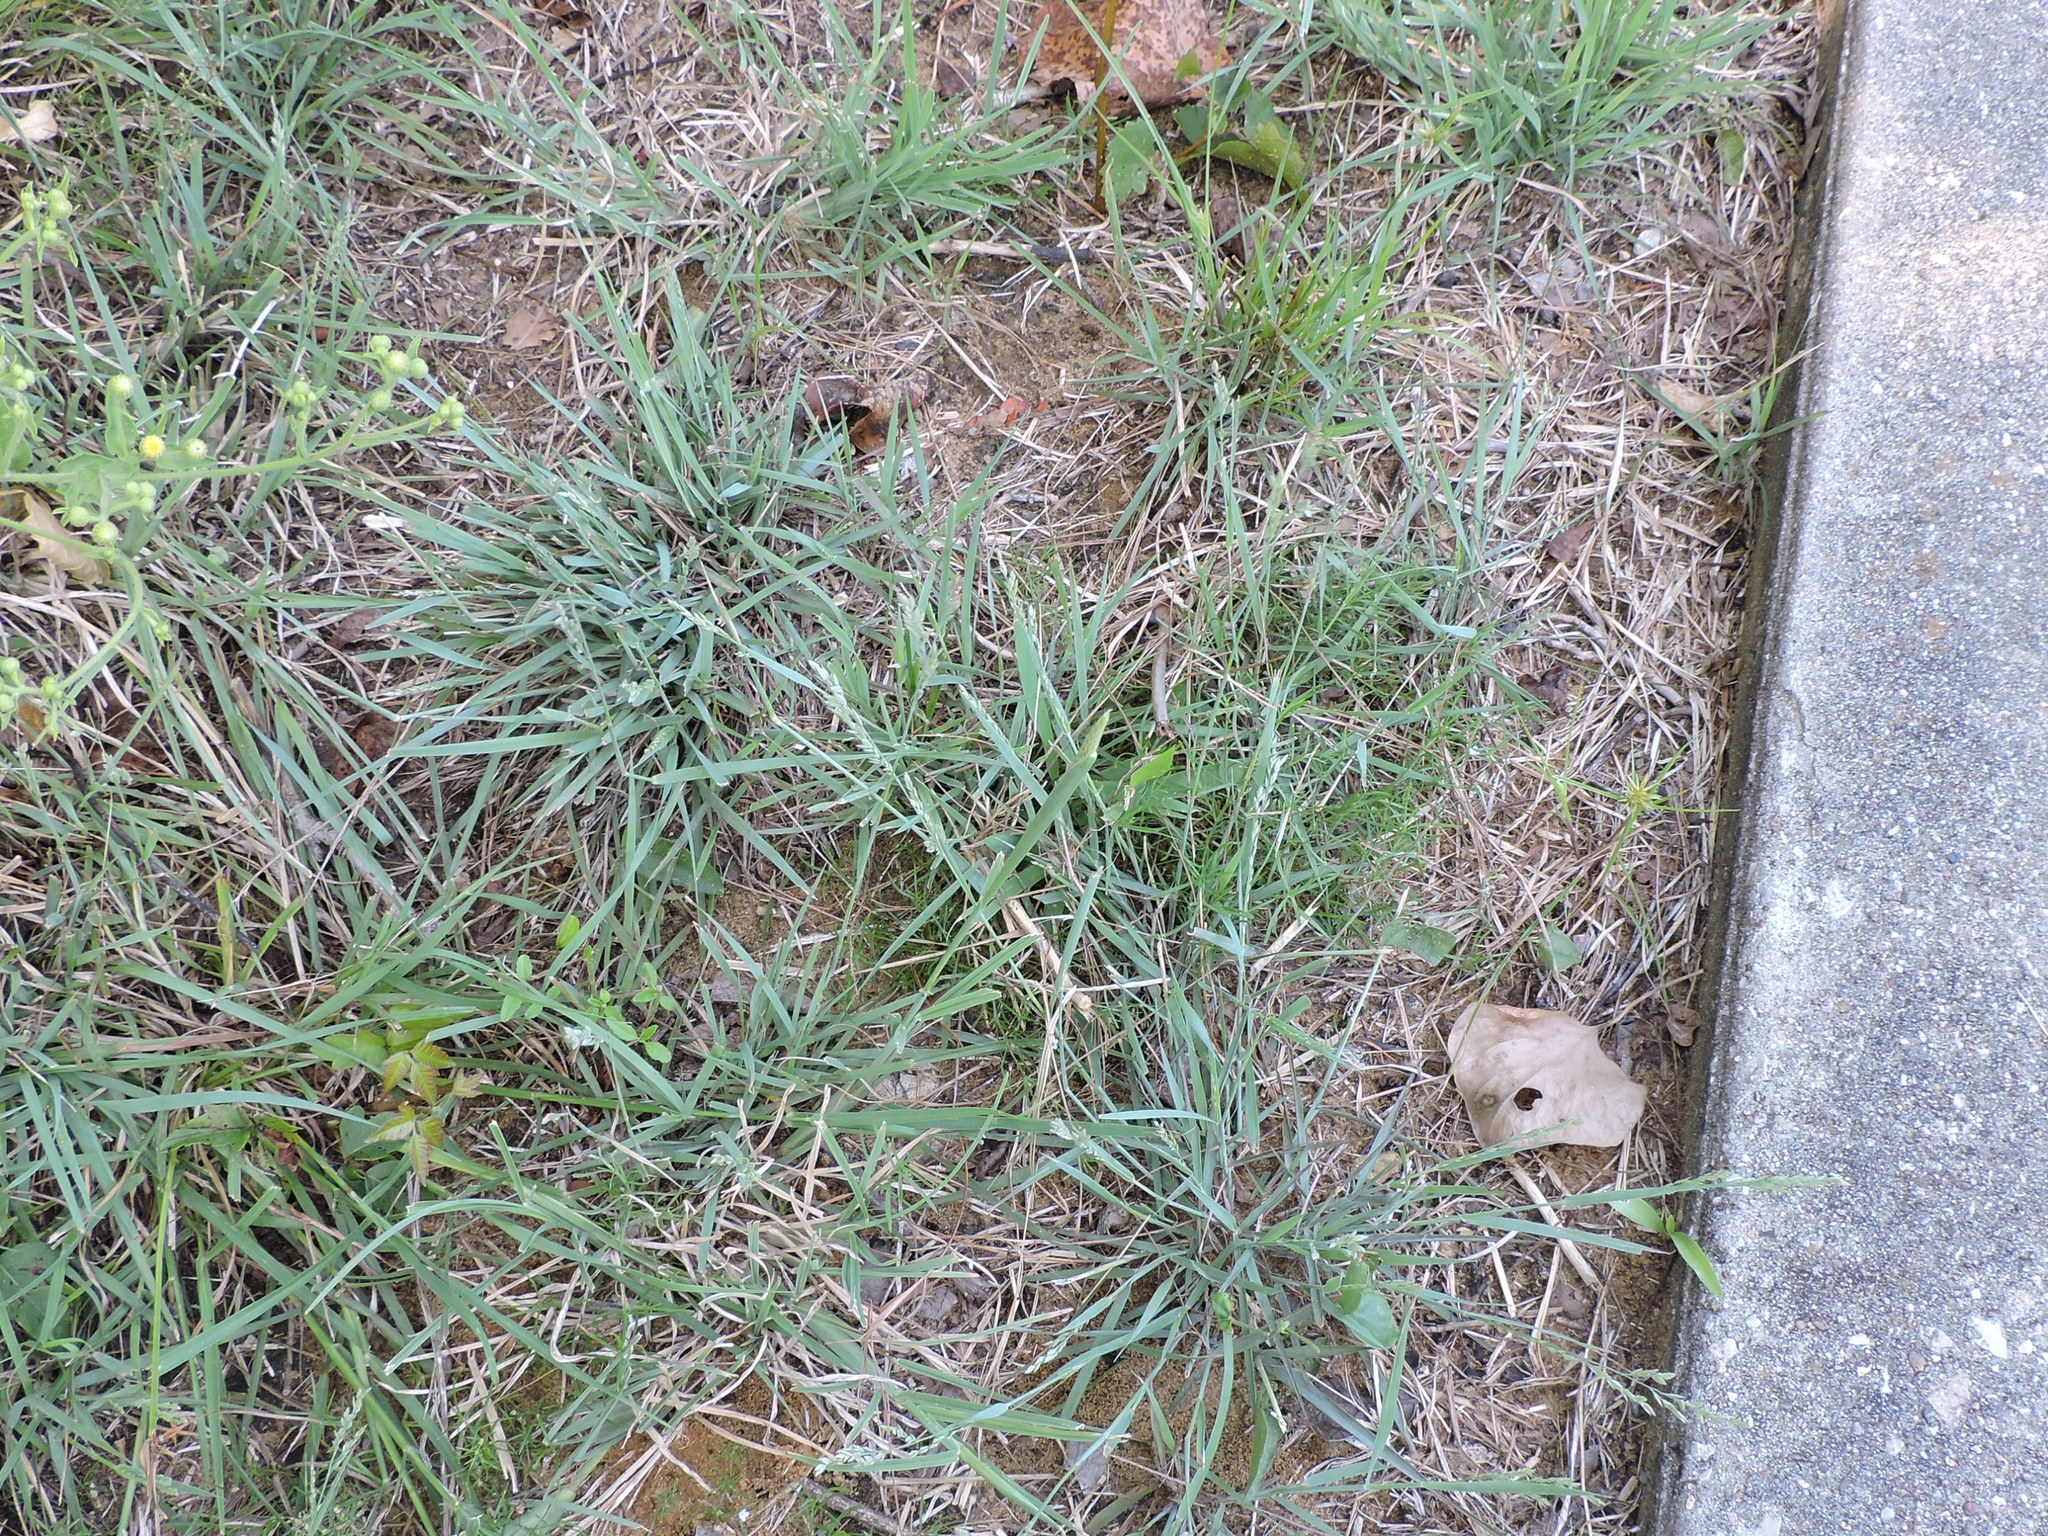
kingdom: Plantae
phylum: Tracheophyta
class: Liliopsida
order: Poales
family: Poaceae
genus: Eragrostis
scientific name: Eragrostis secundiflora
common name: Red love grass
